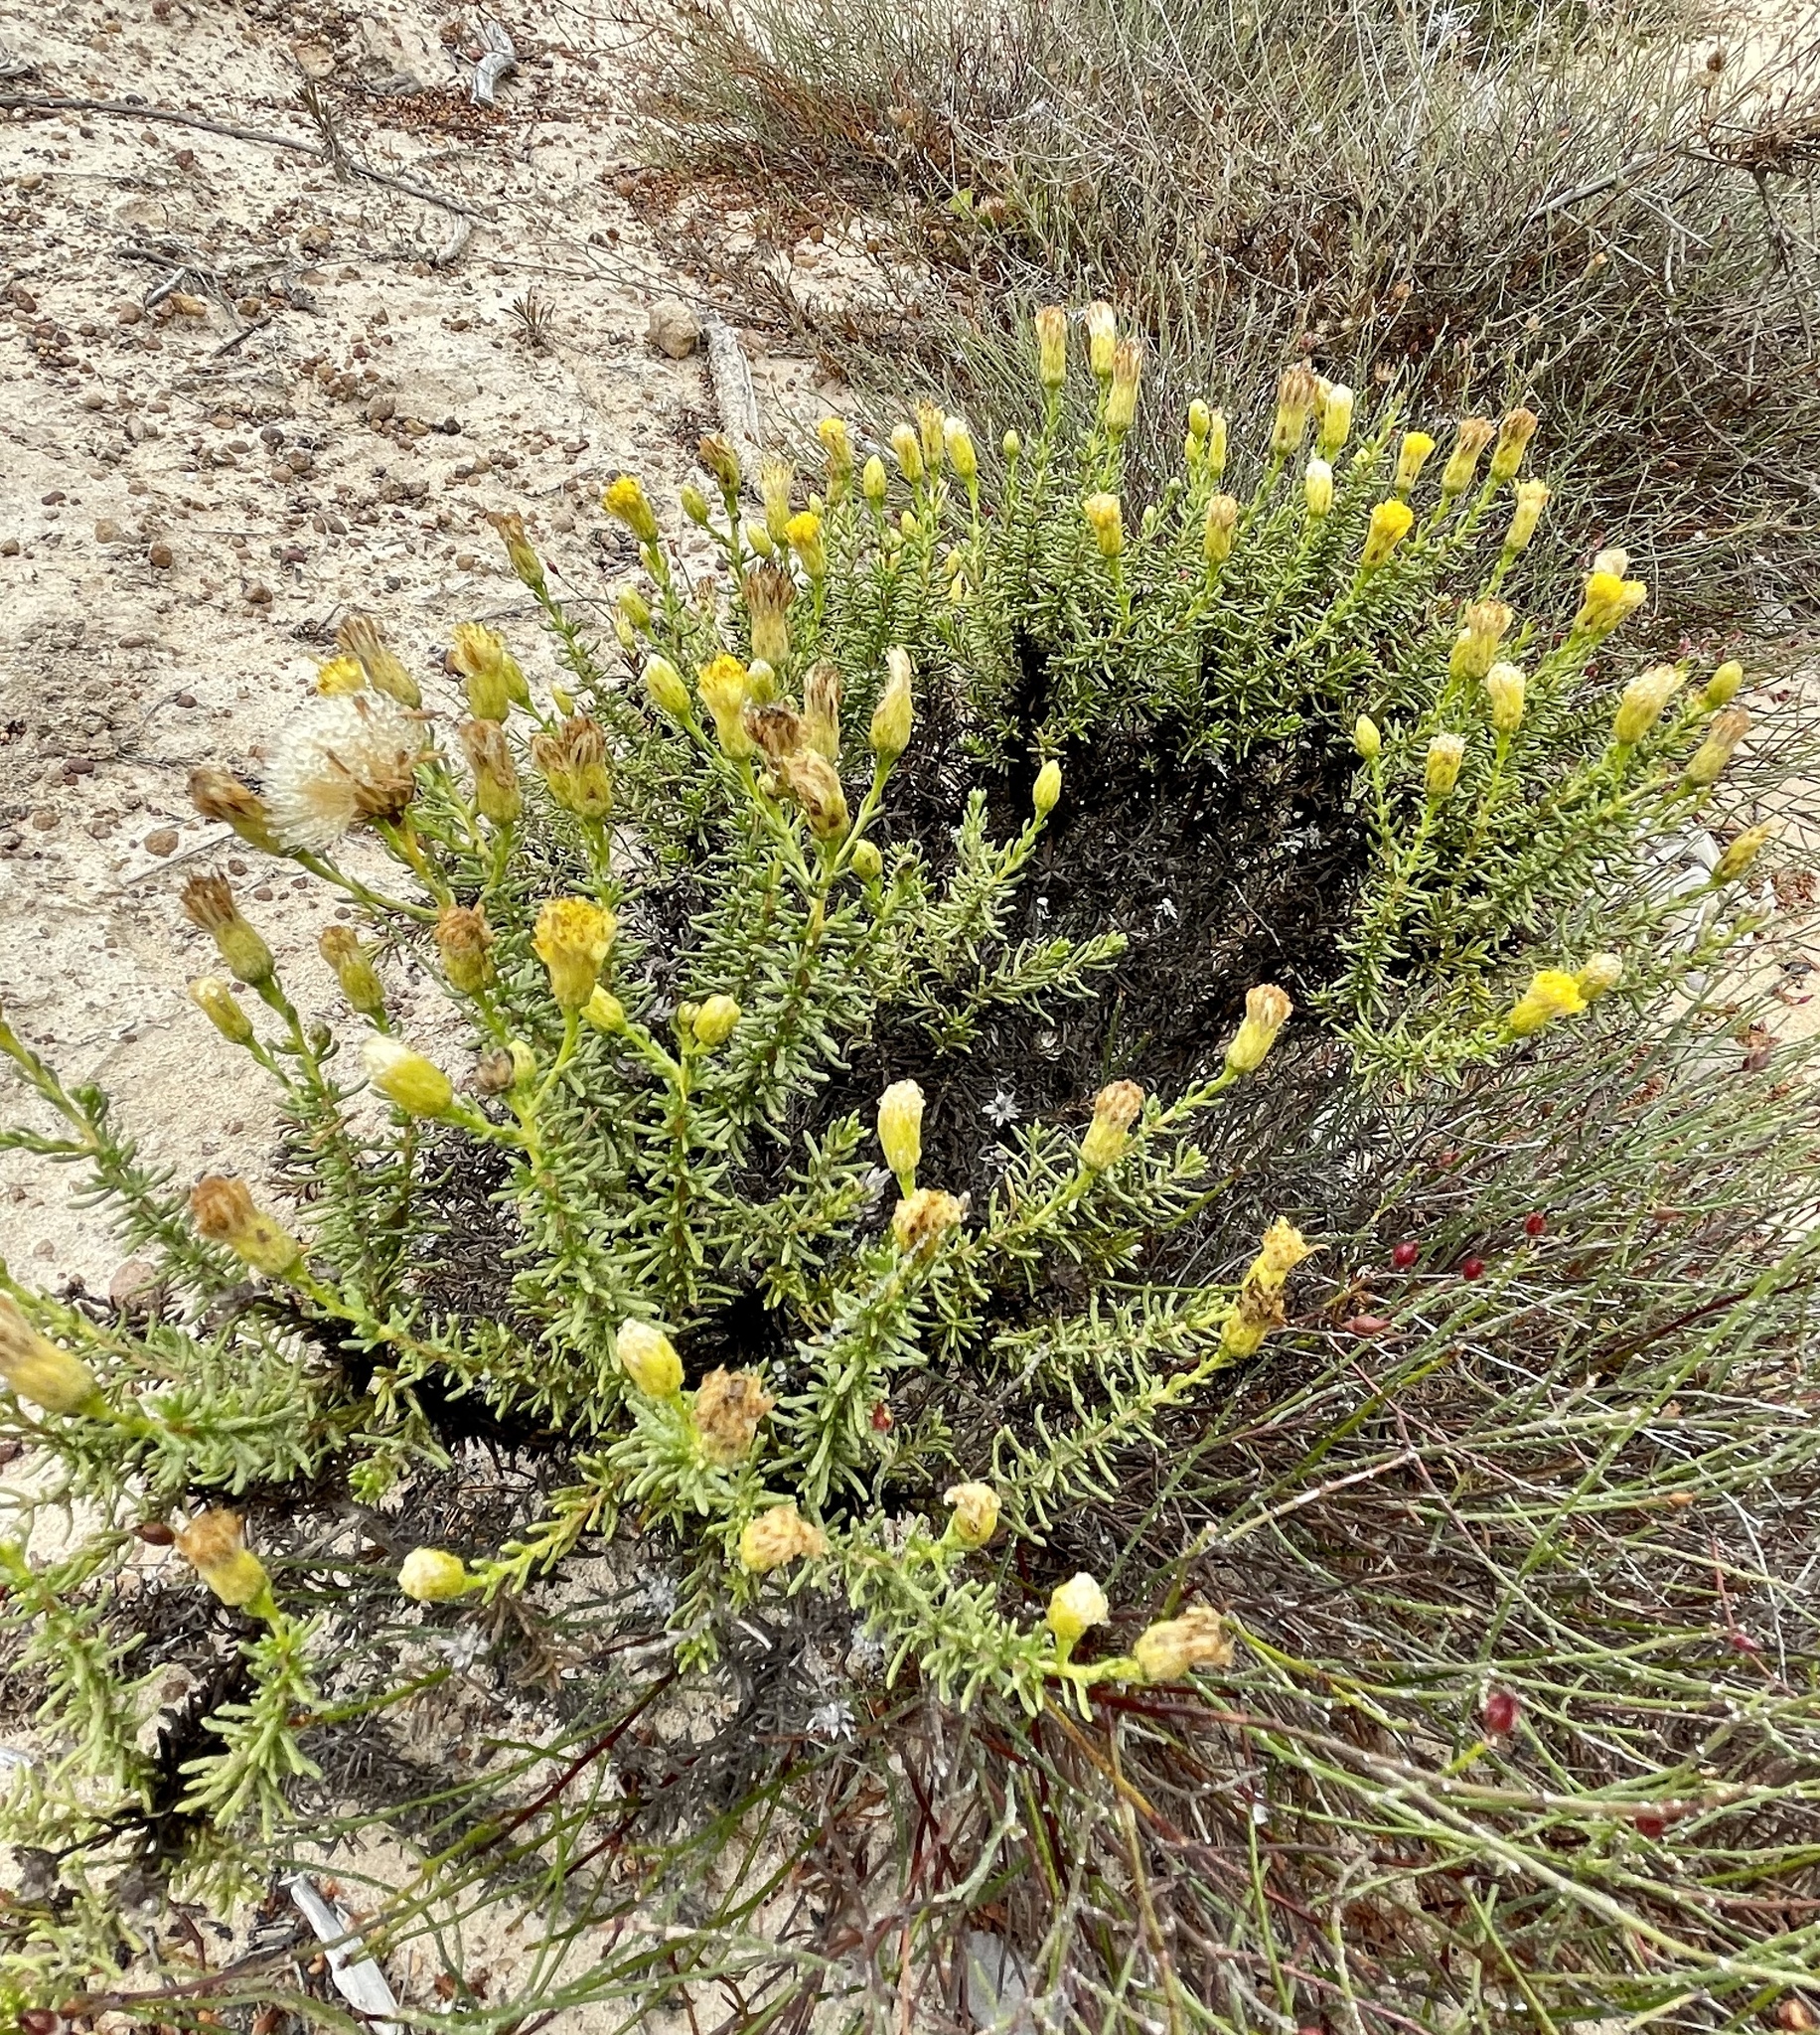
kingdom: Plantae
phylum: Tracheophyta
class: Magnoliopsida
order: Asterales
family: Asteraceae
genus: Ericameria
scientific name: Ericameria fasciculata
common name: Eastwood's goldenbush
